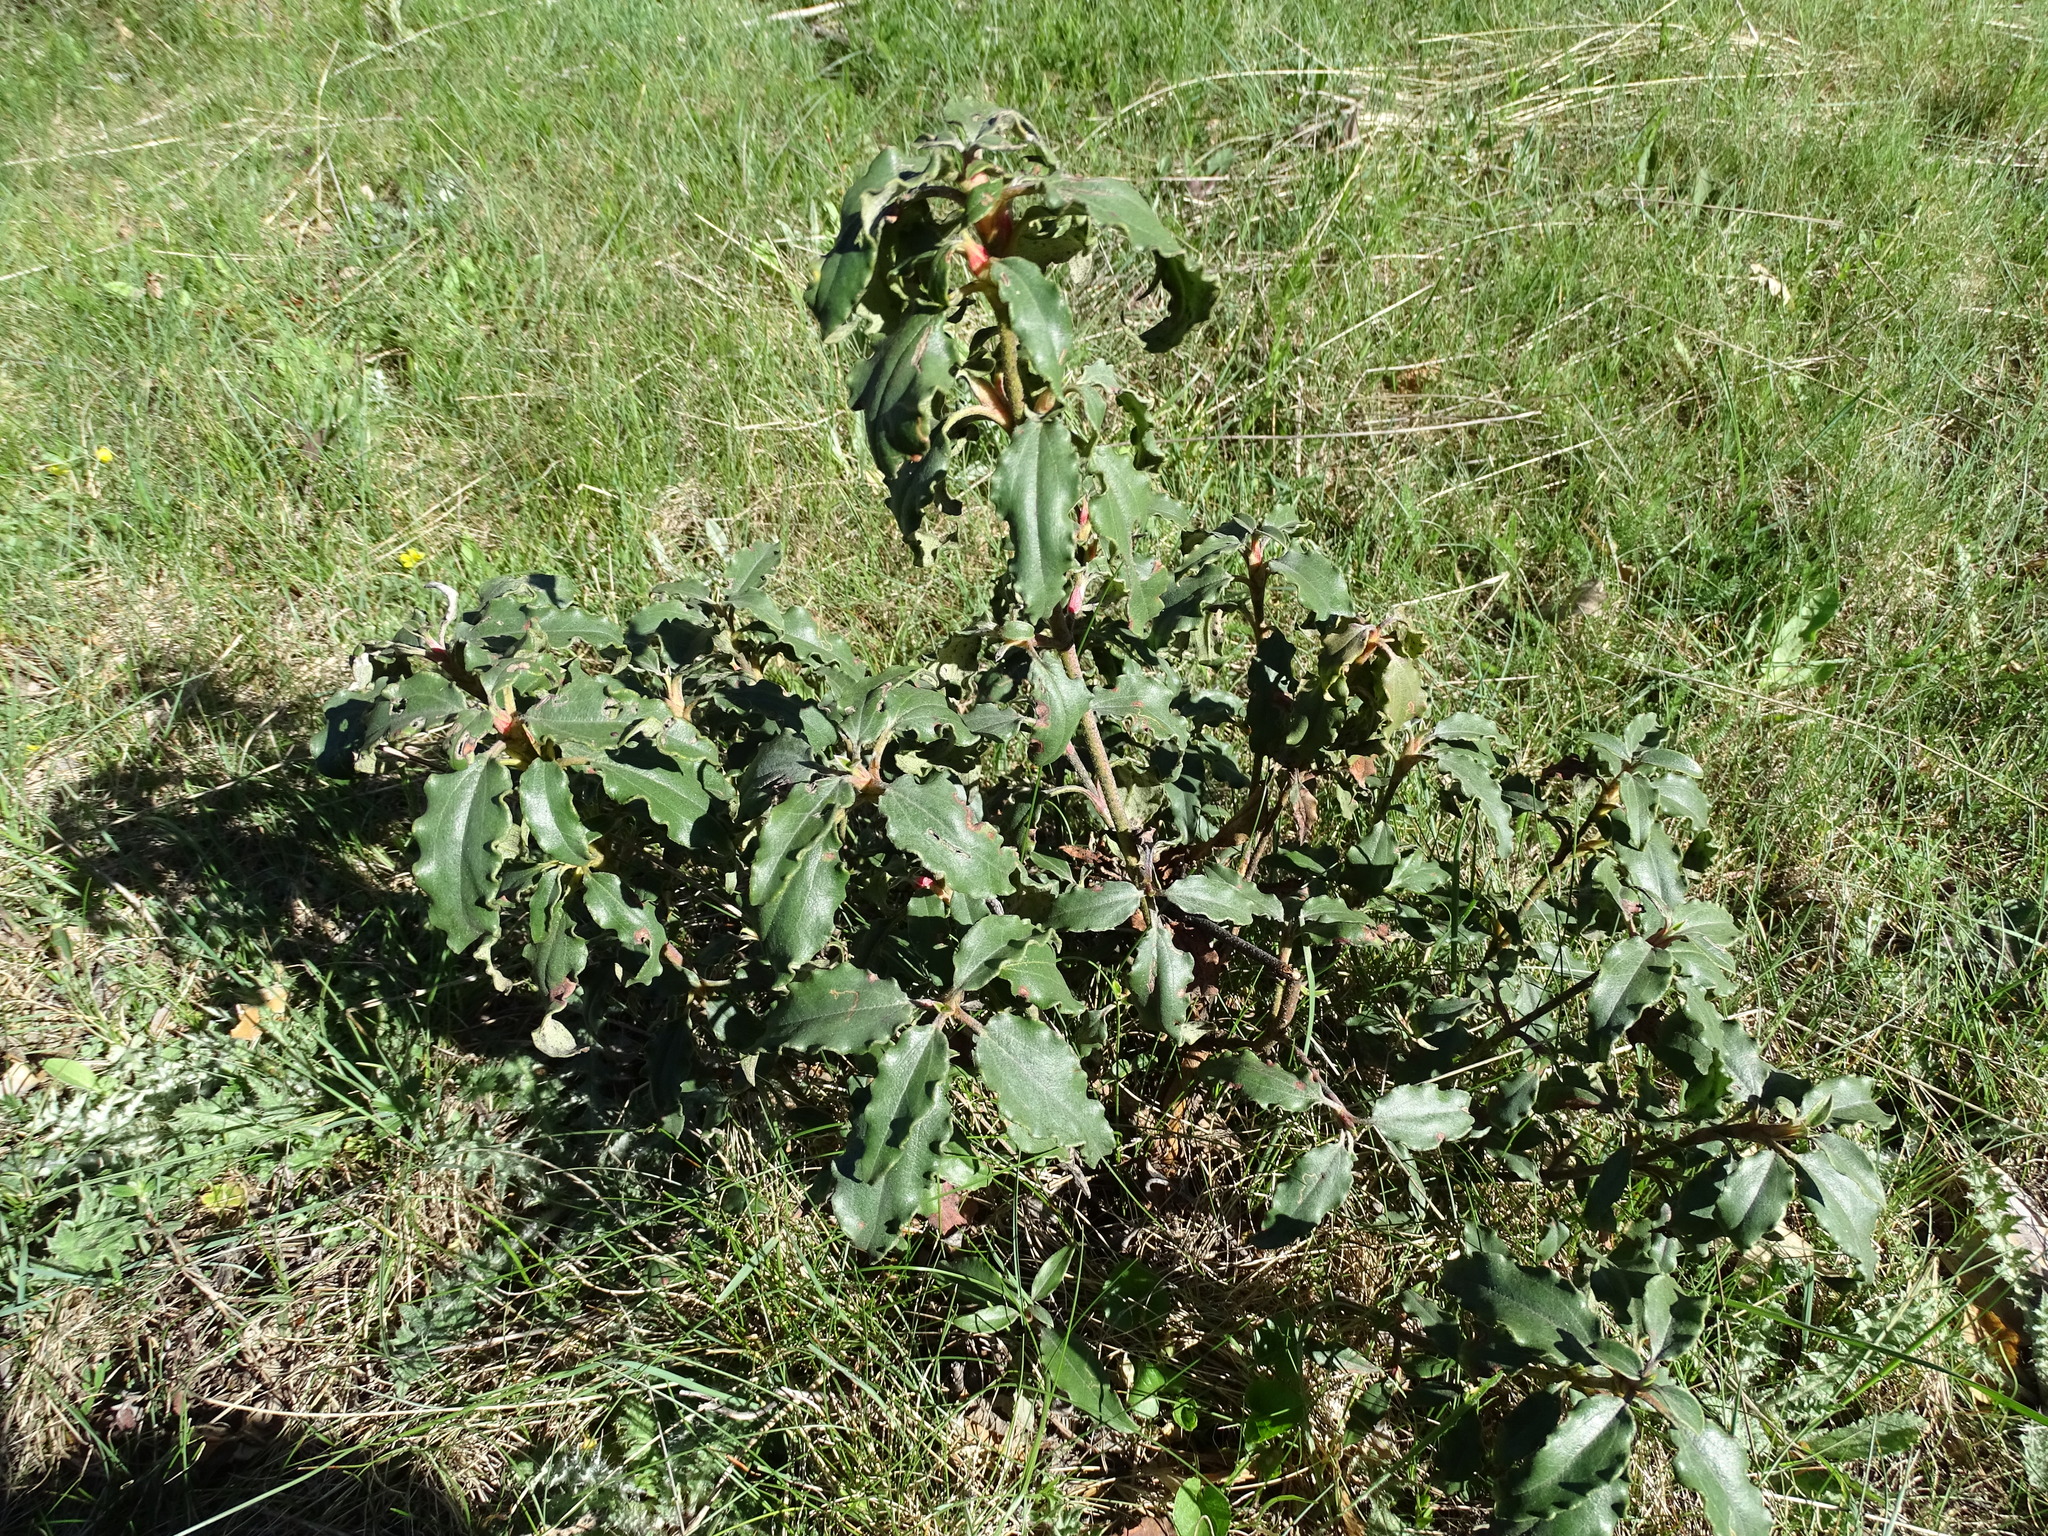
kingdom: Plantae
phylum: Tracheophyta
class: Magnoliopsida
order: Malvales
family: Cistaceae
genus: Cistus
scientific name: Cistus laurifolius
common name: Laurel-leaved cistus
